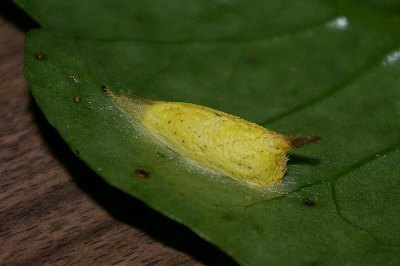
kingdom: Animalia
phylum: Arthropoda
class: Insecta
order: Lepidoptera
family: Nolidae
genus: Blenina
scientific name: Blenina senex
